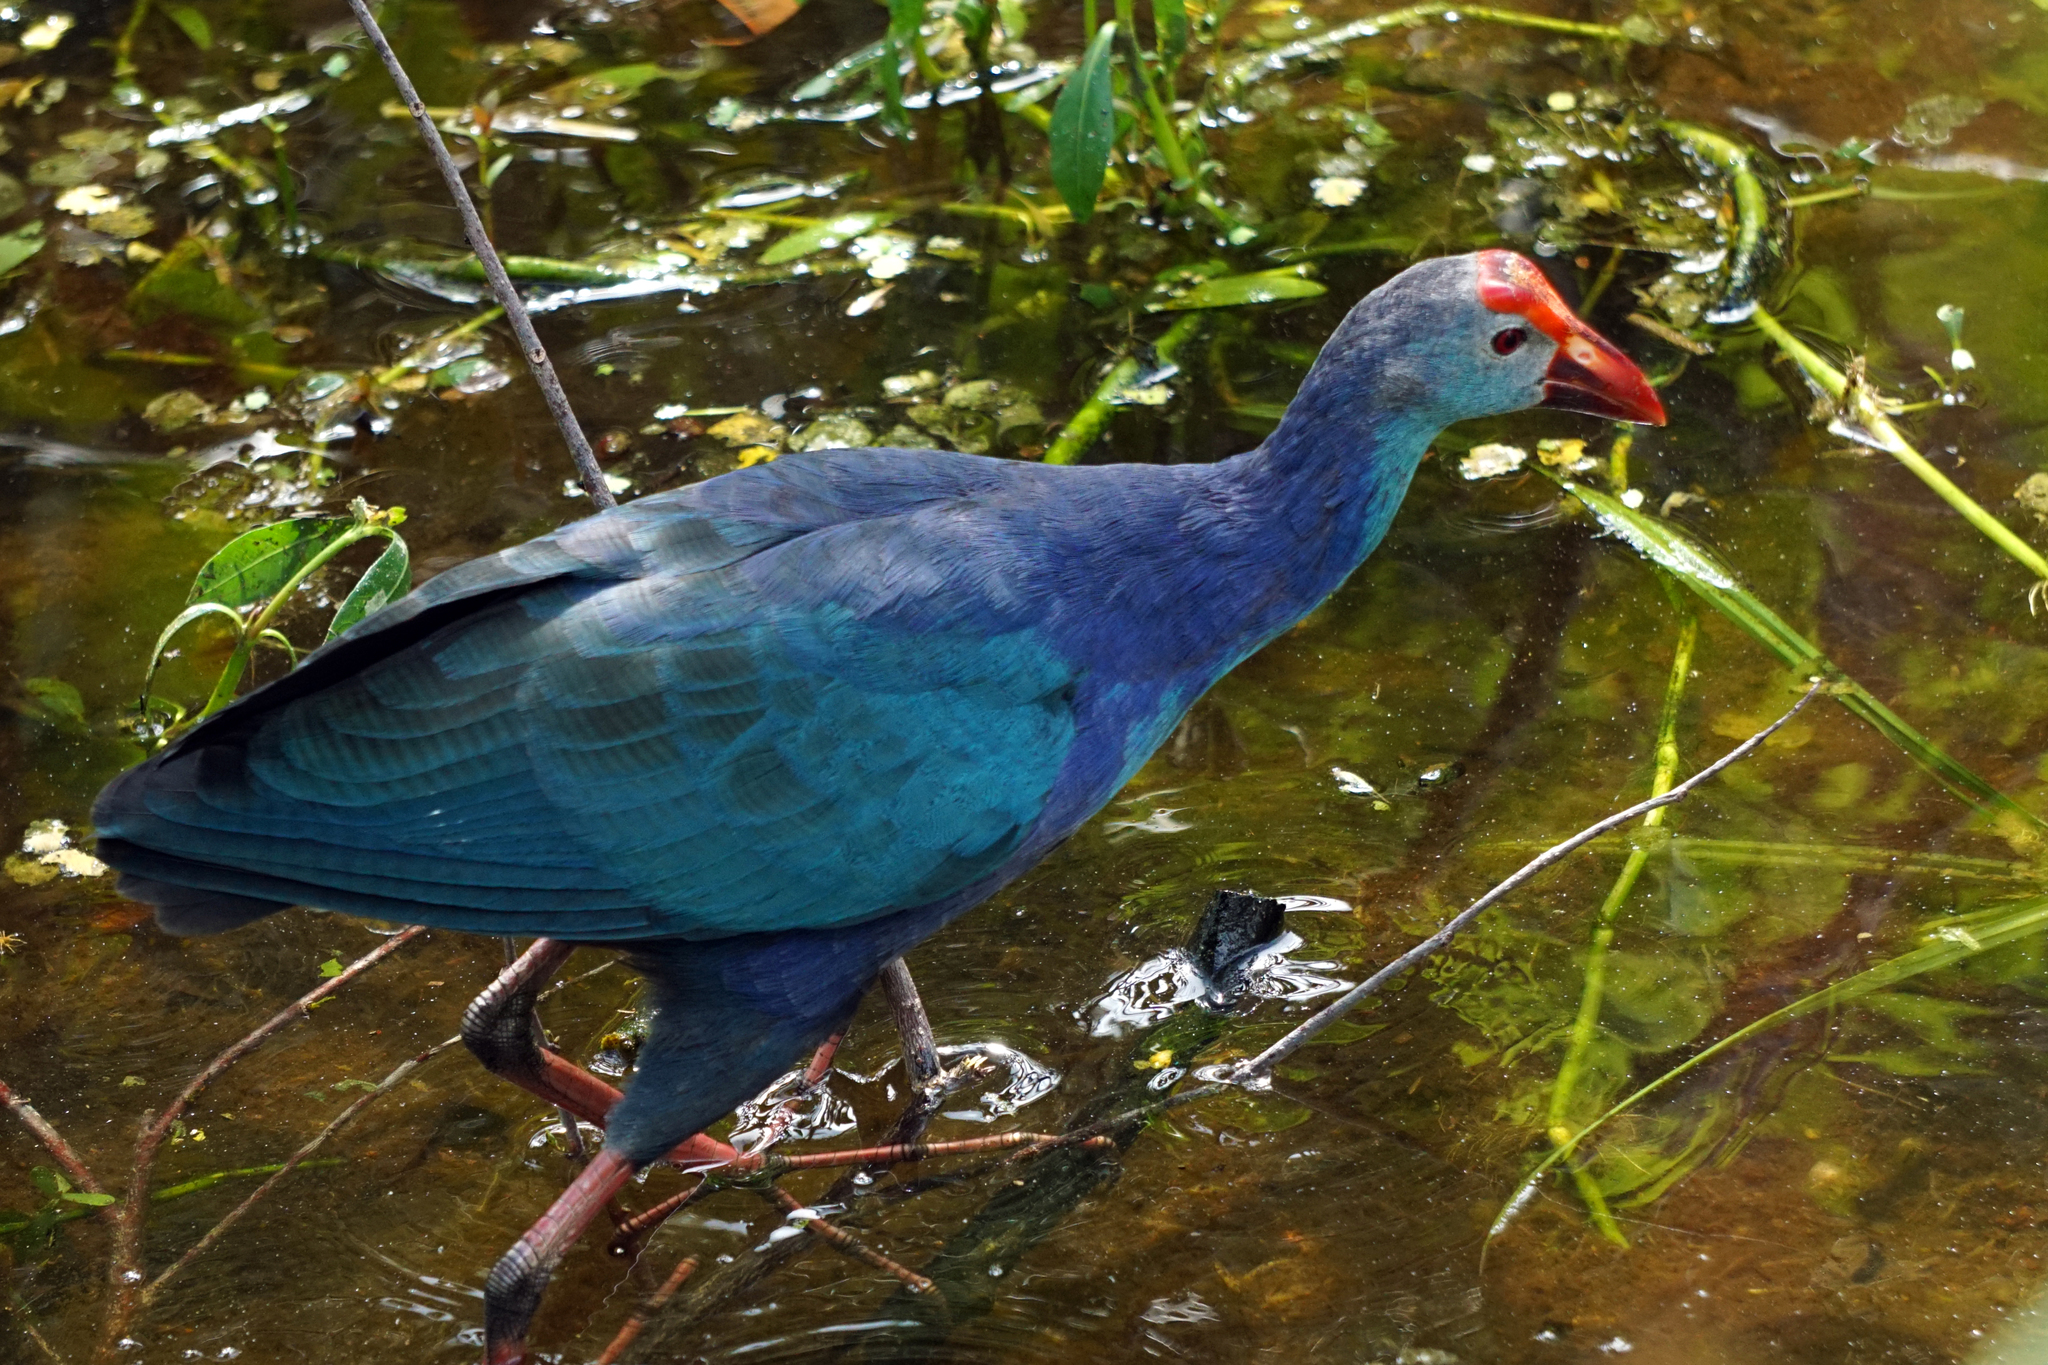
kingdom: Animalia
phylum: Chordata
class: Aves
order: Gruiformes
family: Rallidae
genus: Porphyrio
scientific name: Porphyrio porphyrio
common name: Purple swamphen
